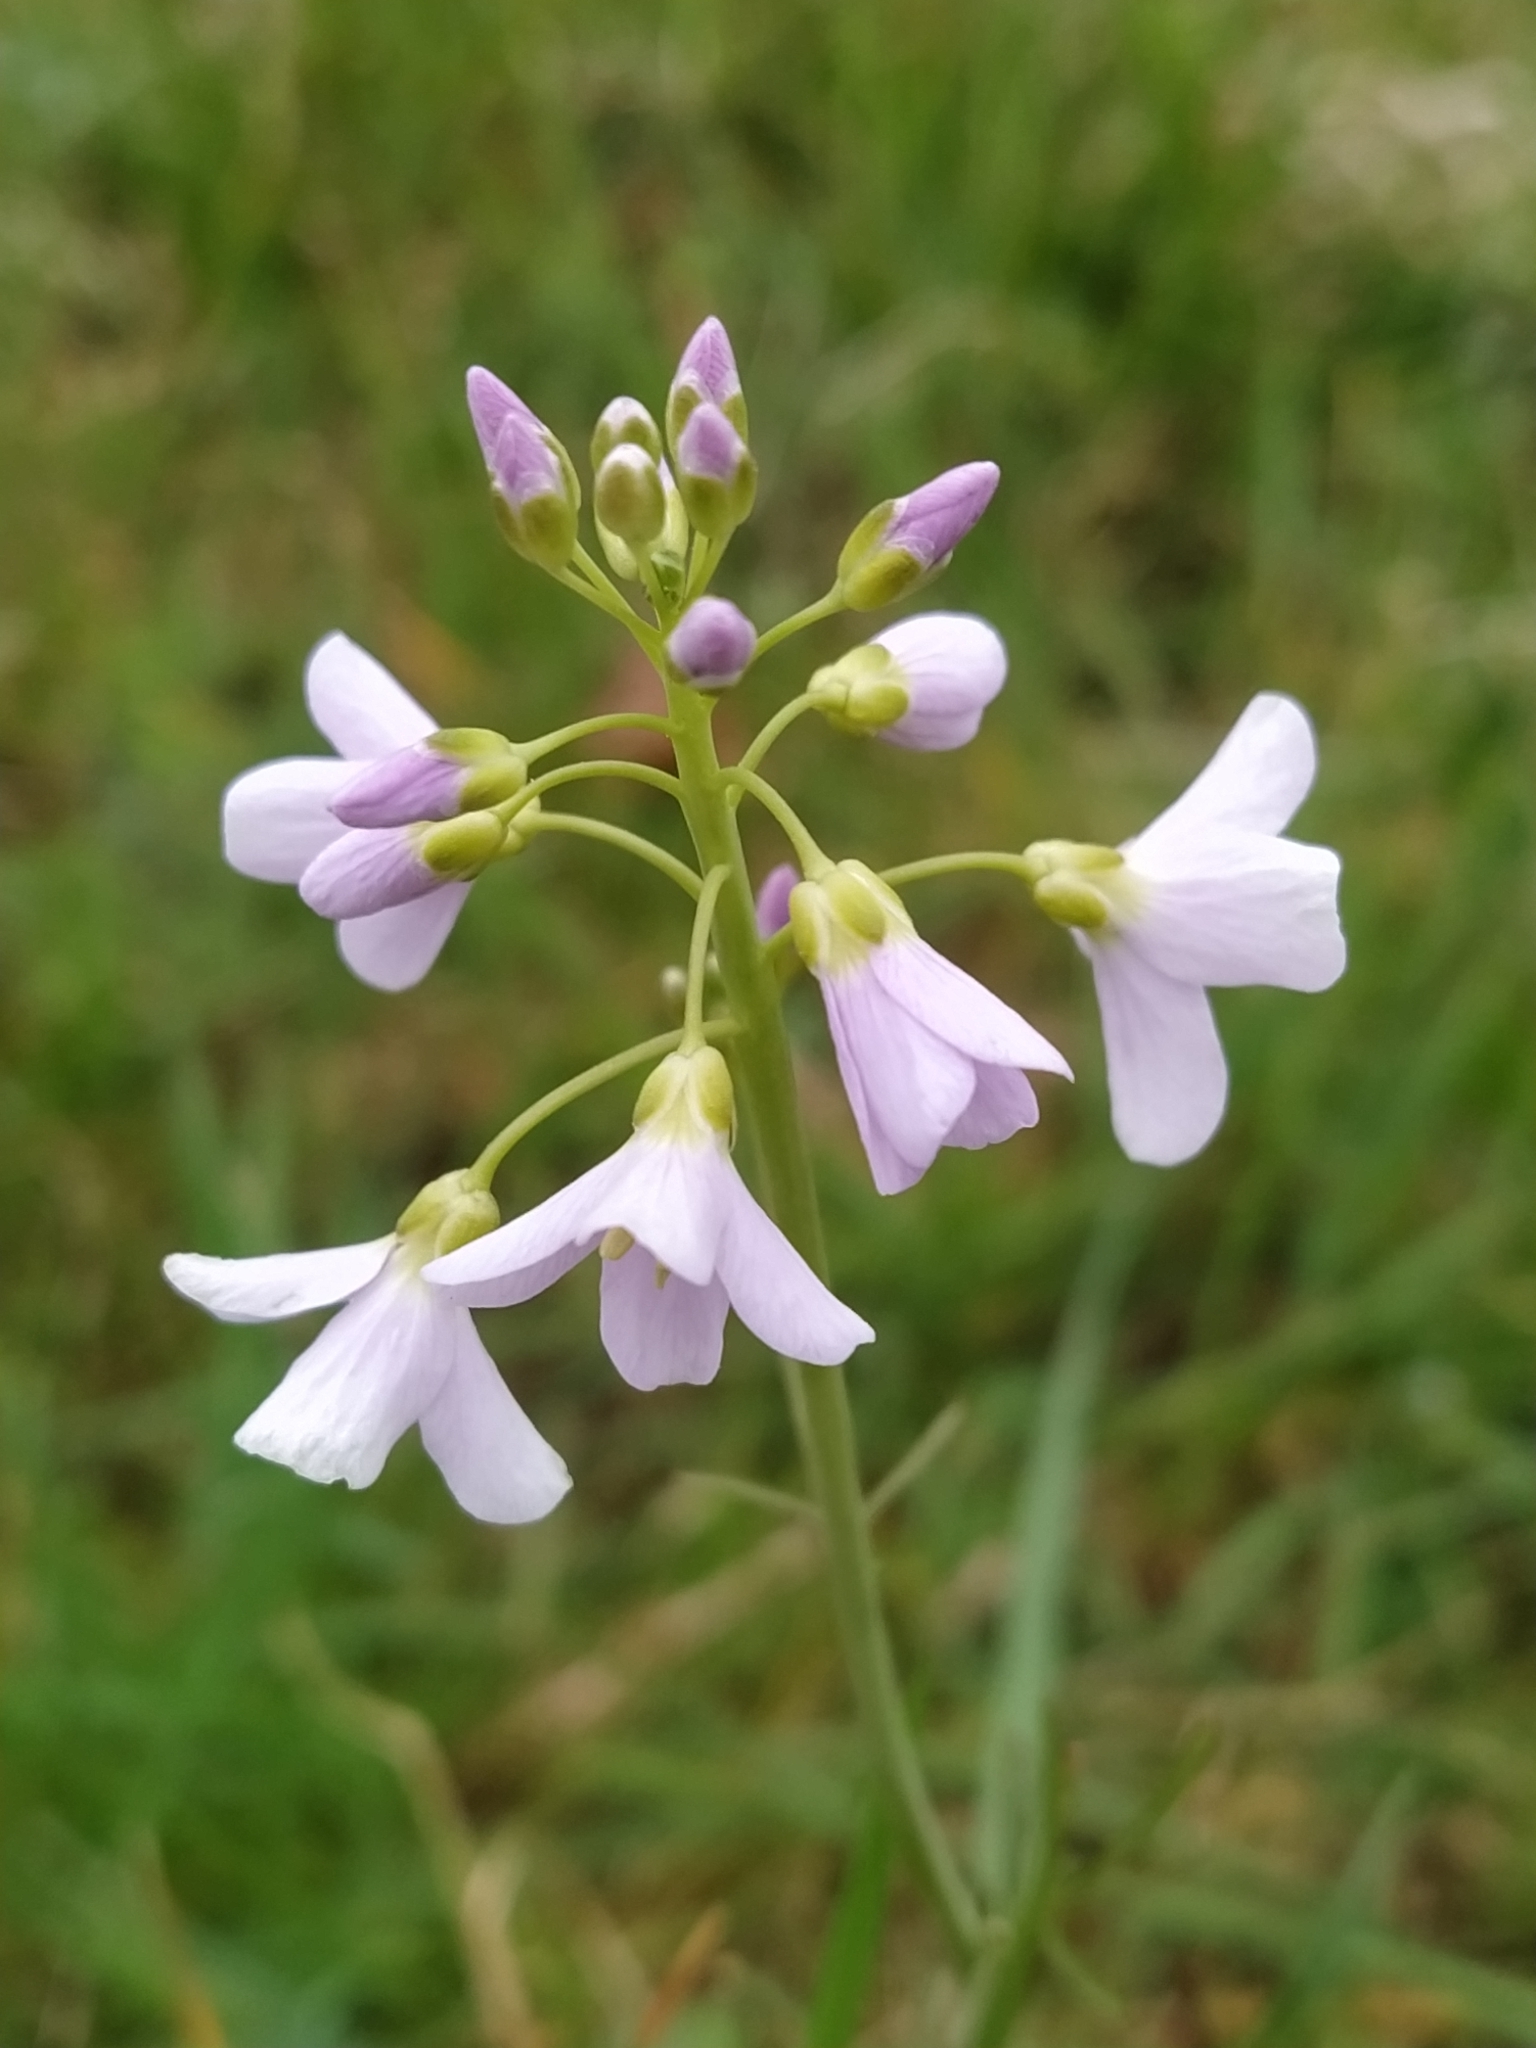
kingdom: Plantae
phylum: Tracheophyta
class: Magnoliopsida
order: Brassicales
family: Brassicaceae
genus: Cardamine
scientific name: Cardamine pratensis
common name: Cuckoo flower
